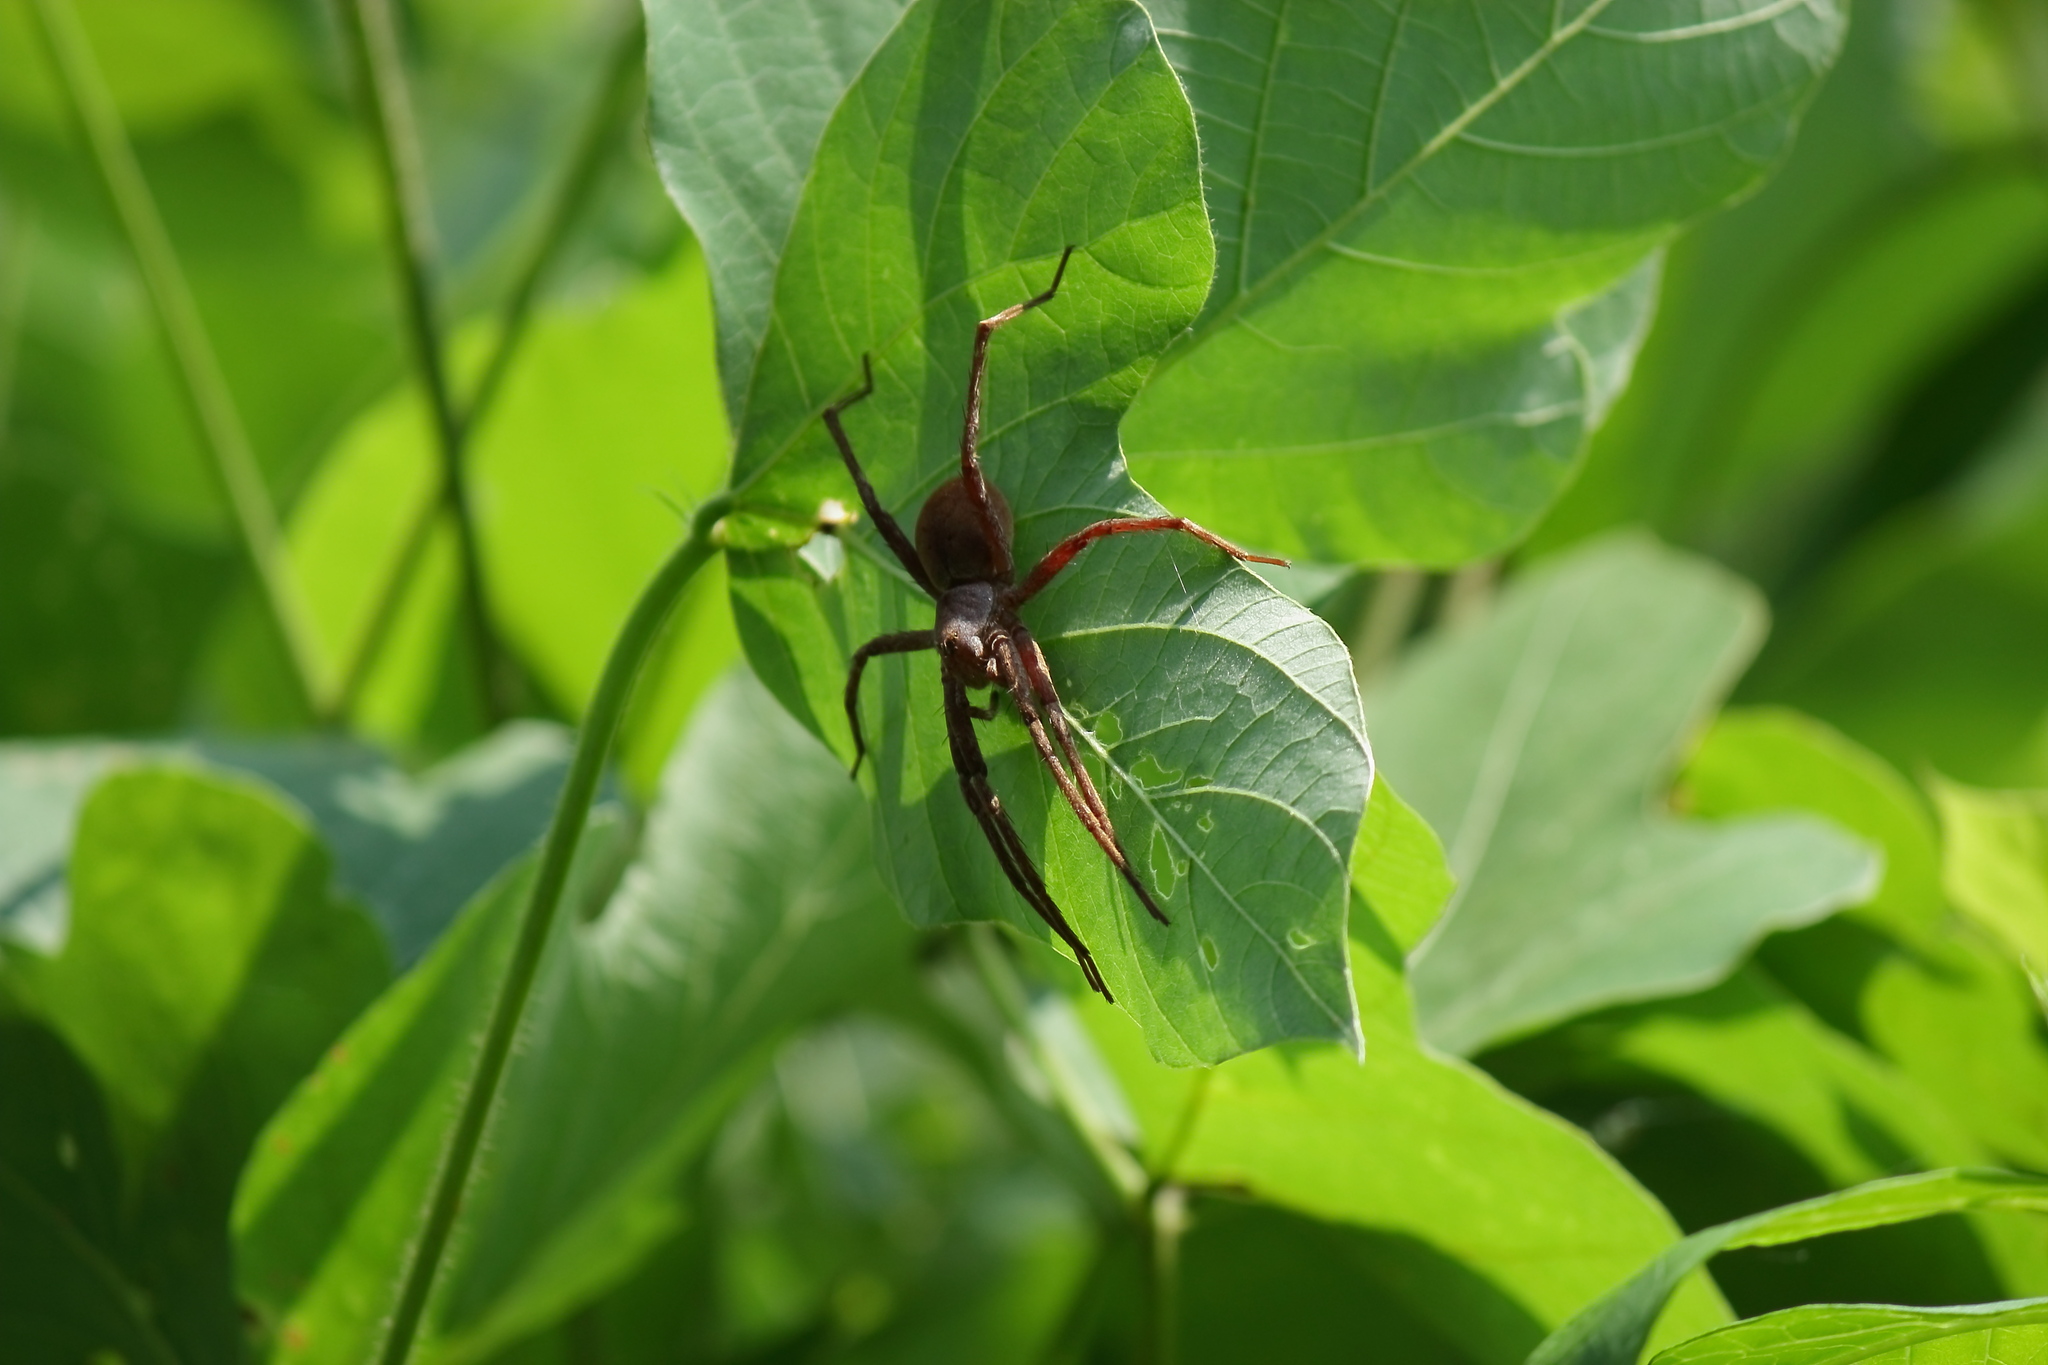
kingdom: Animalia
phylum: Arthropoda
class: Arachnida
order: Araneae
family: Pisauridae
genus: Dolomedes
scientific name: Dolomedes sulfureus
